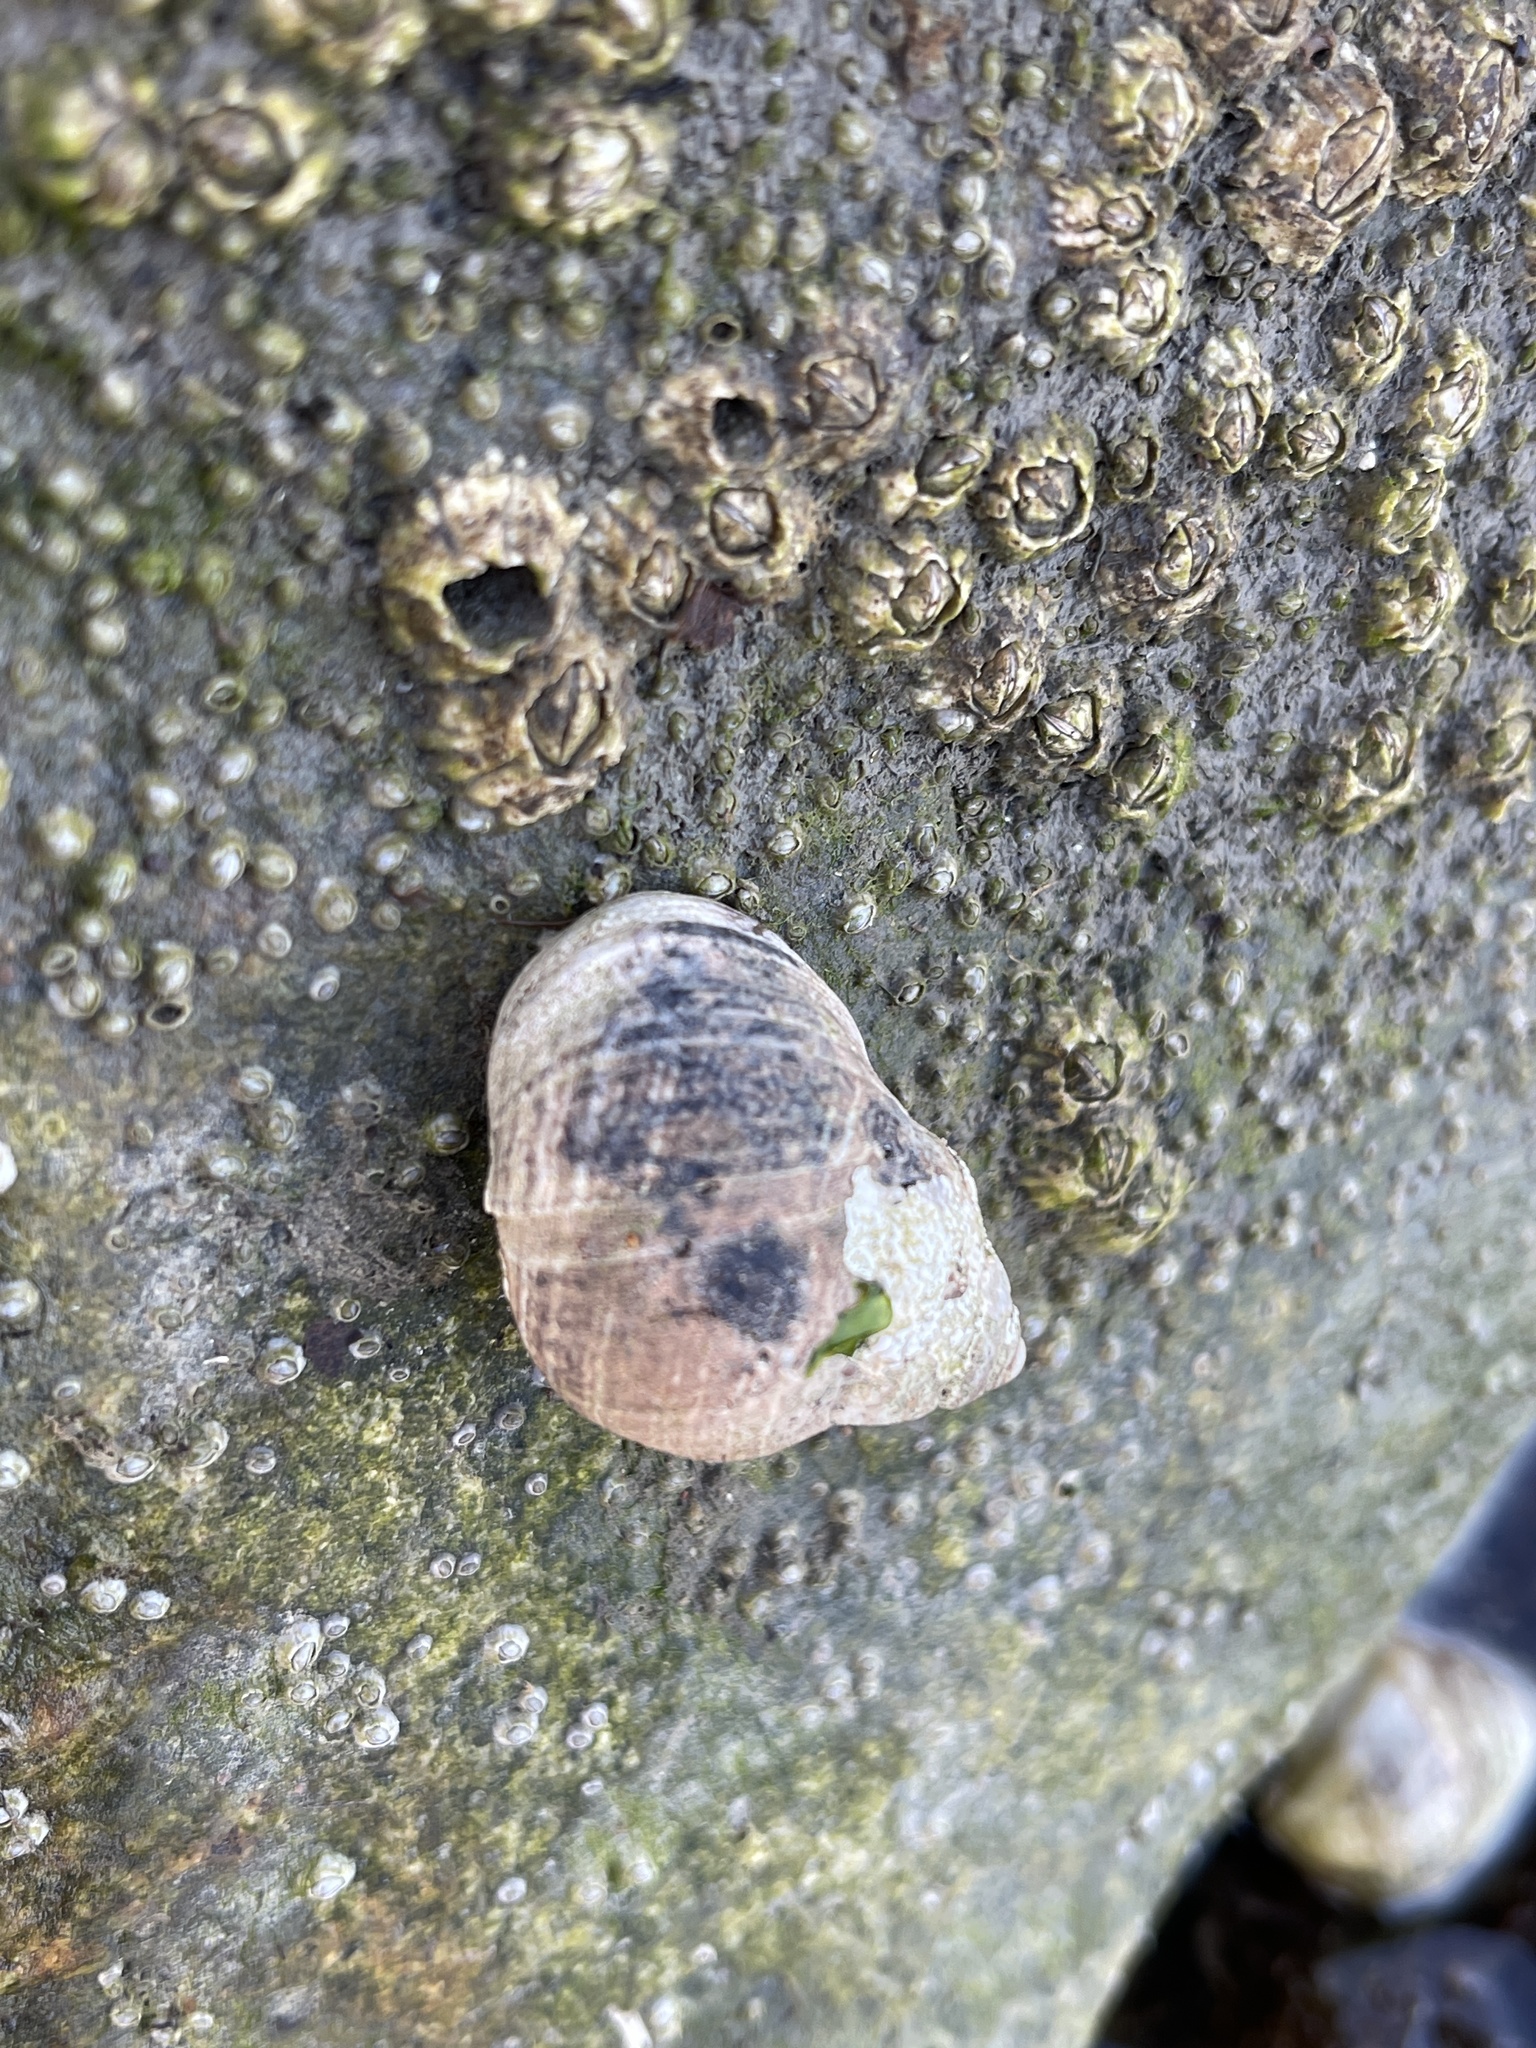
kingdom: Animalia
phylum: Mollusca
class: Gastropoda
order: Littorinimorpha
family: Littorinidae
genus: Littorina
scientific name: Littorina littorea
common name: Common periwinkle
